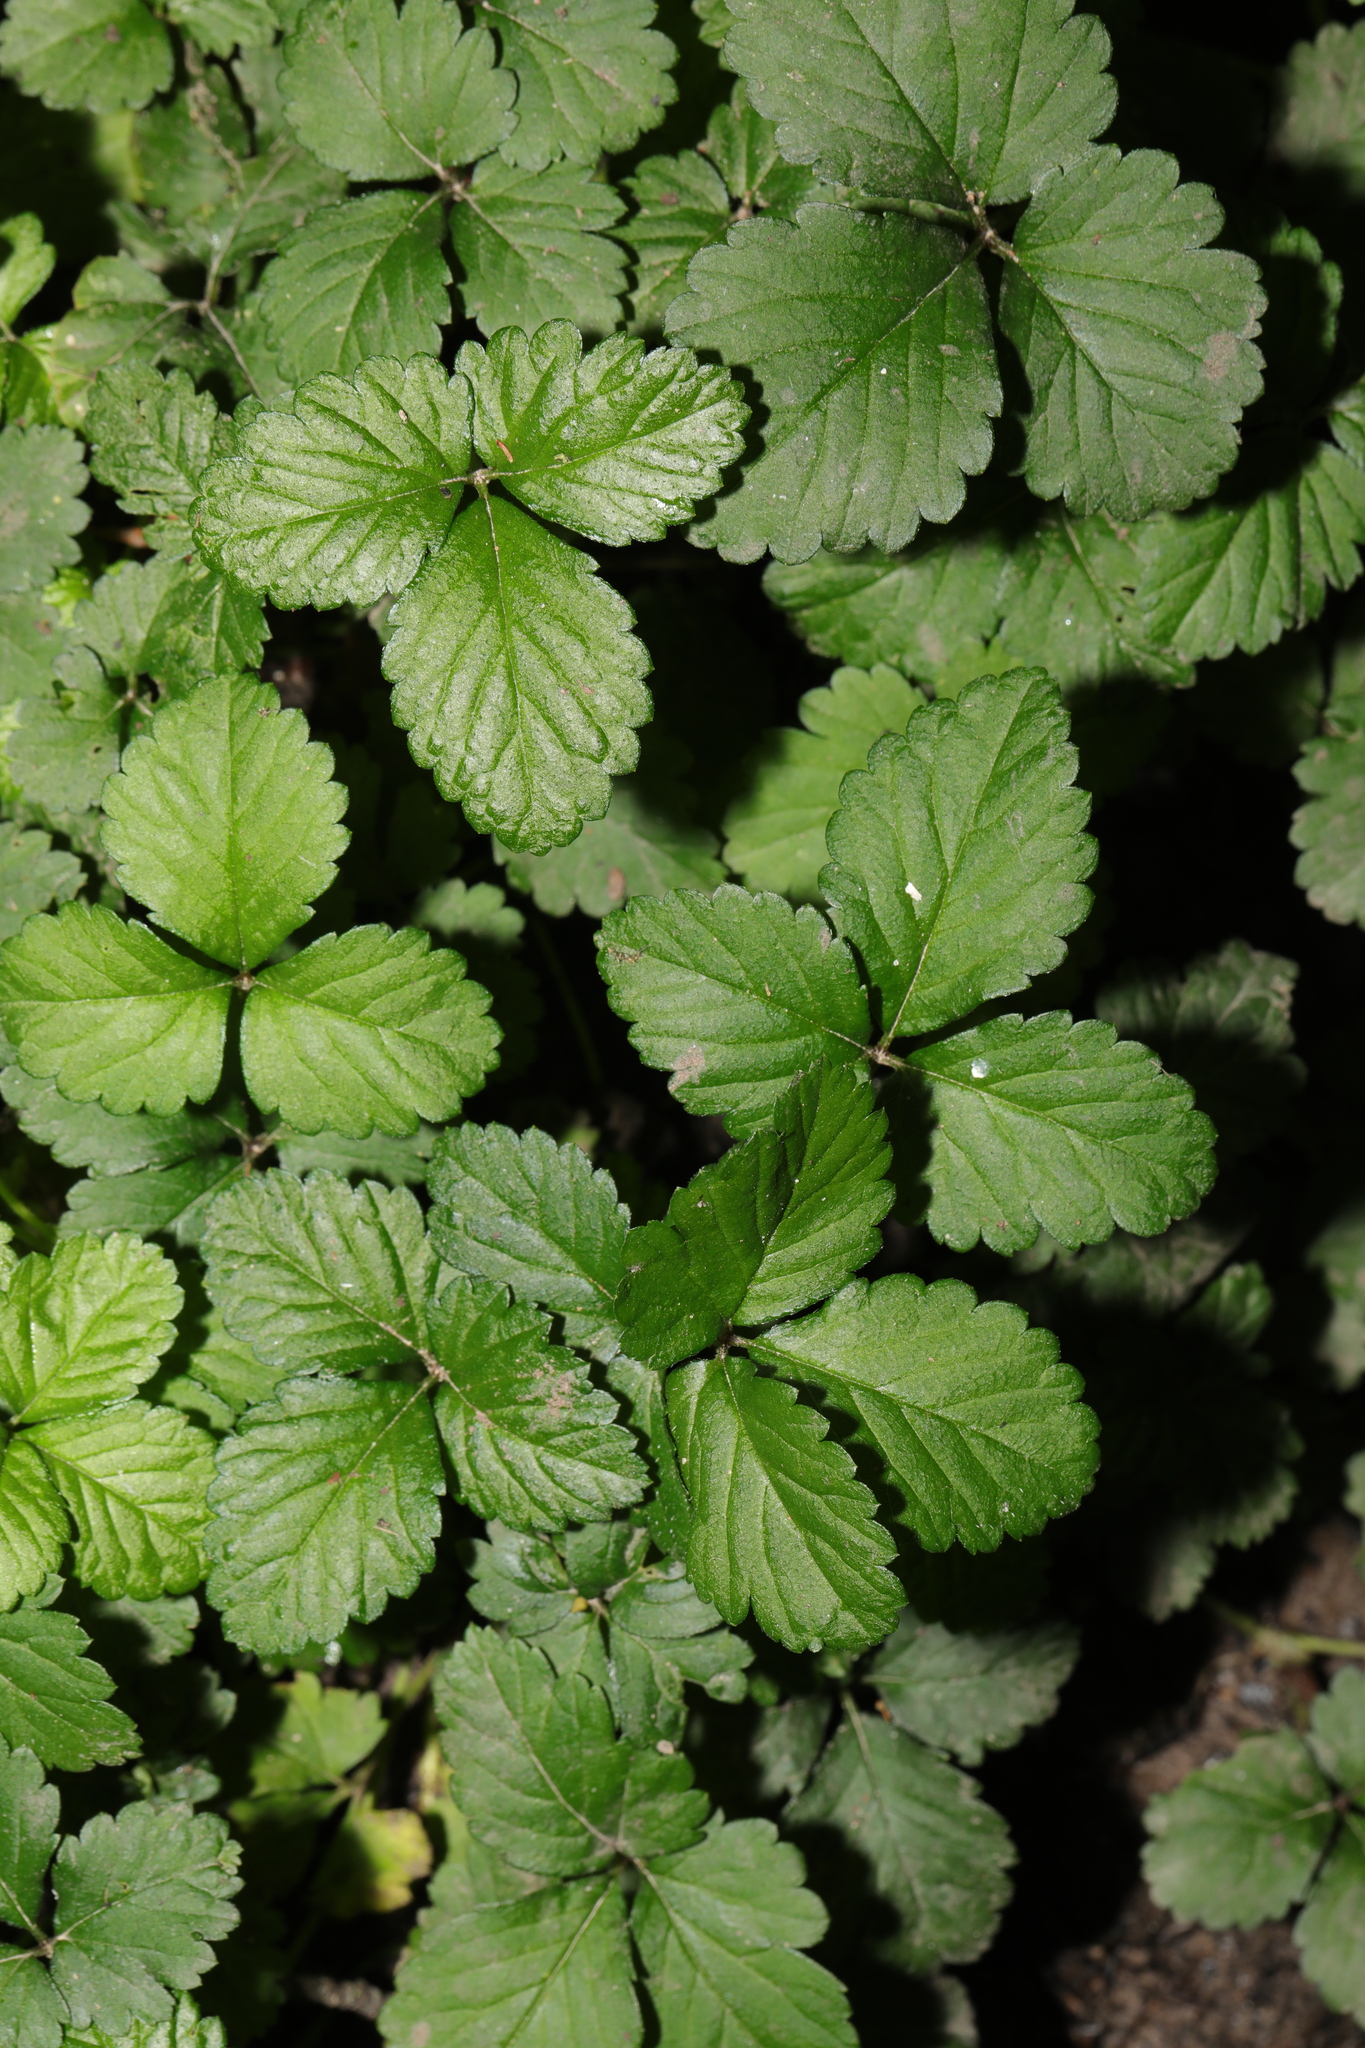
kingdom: Plantae
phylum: Tracheophyta
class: Magnoliopsida
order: Rosales
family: Rosaceae
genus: Potentilla
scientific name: Potentilla indica
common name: Yellow-flowered strawberry
